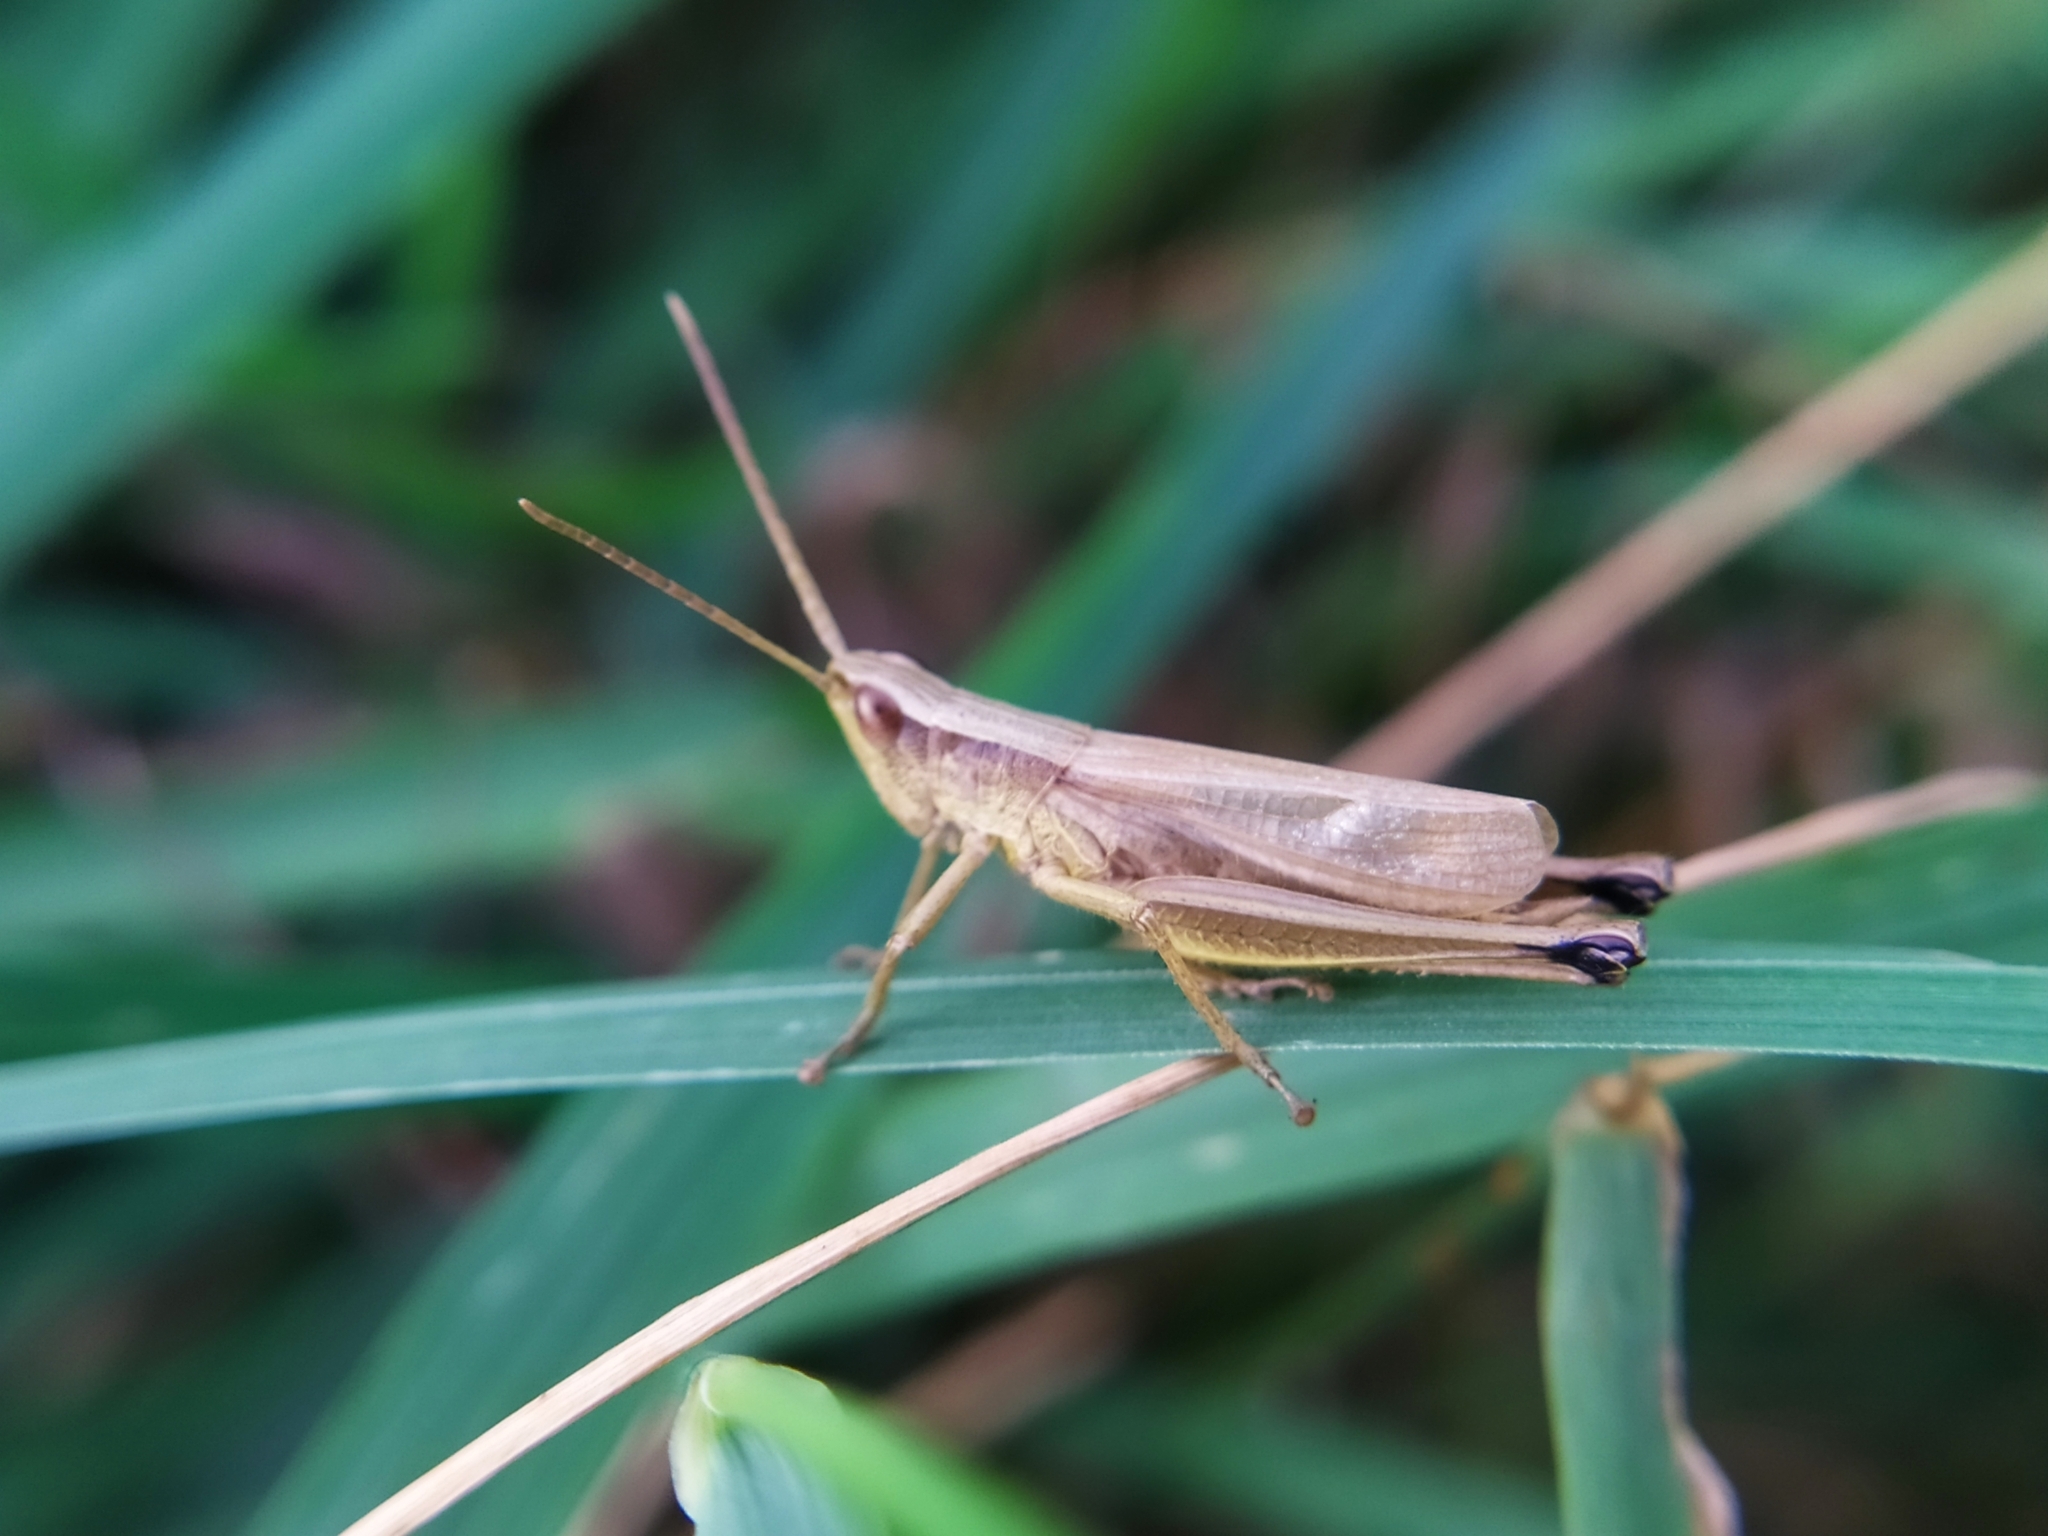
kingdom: Animalia
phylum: Arthropoda
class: Insecta
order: Orthoptera
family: Acrididae
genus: Chrysochraon
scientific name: Chrysochraon dispar
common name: Large gold grasshopper
